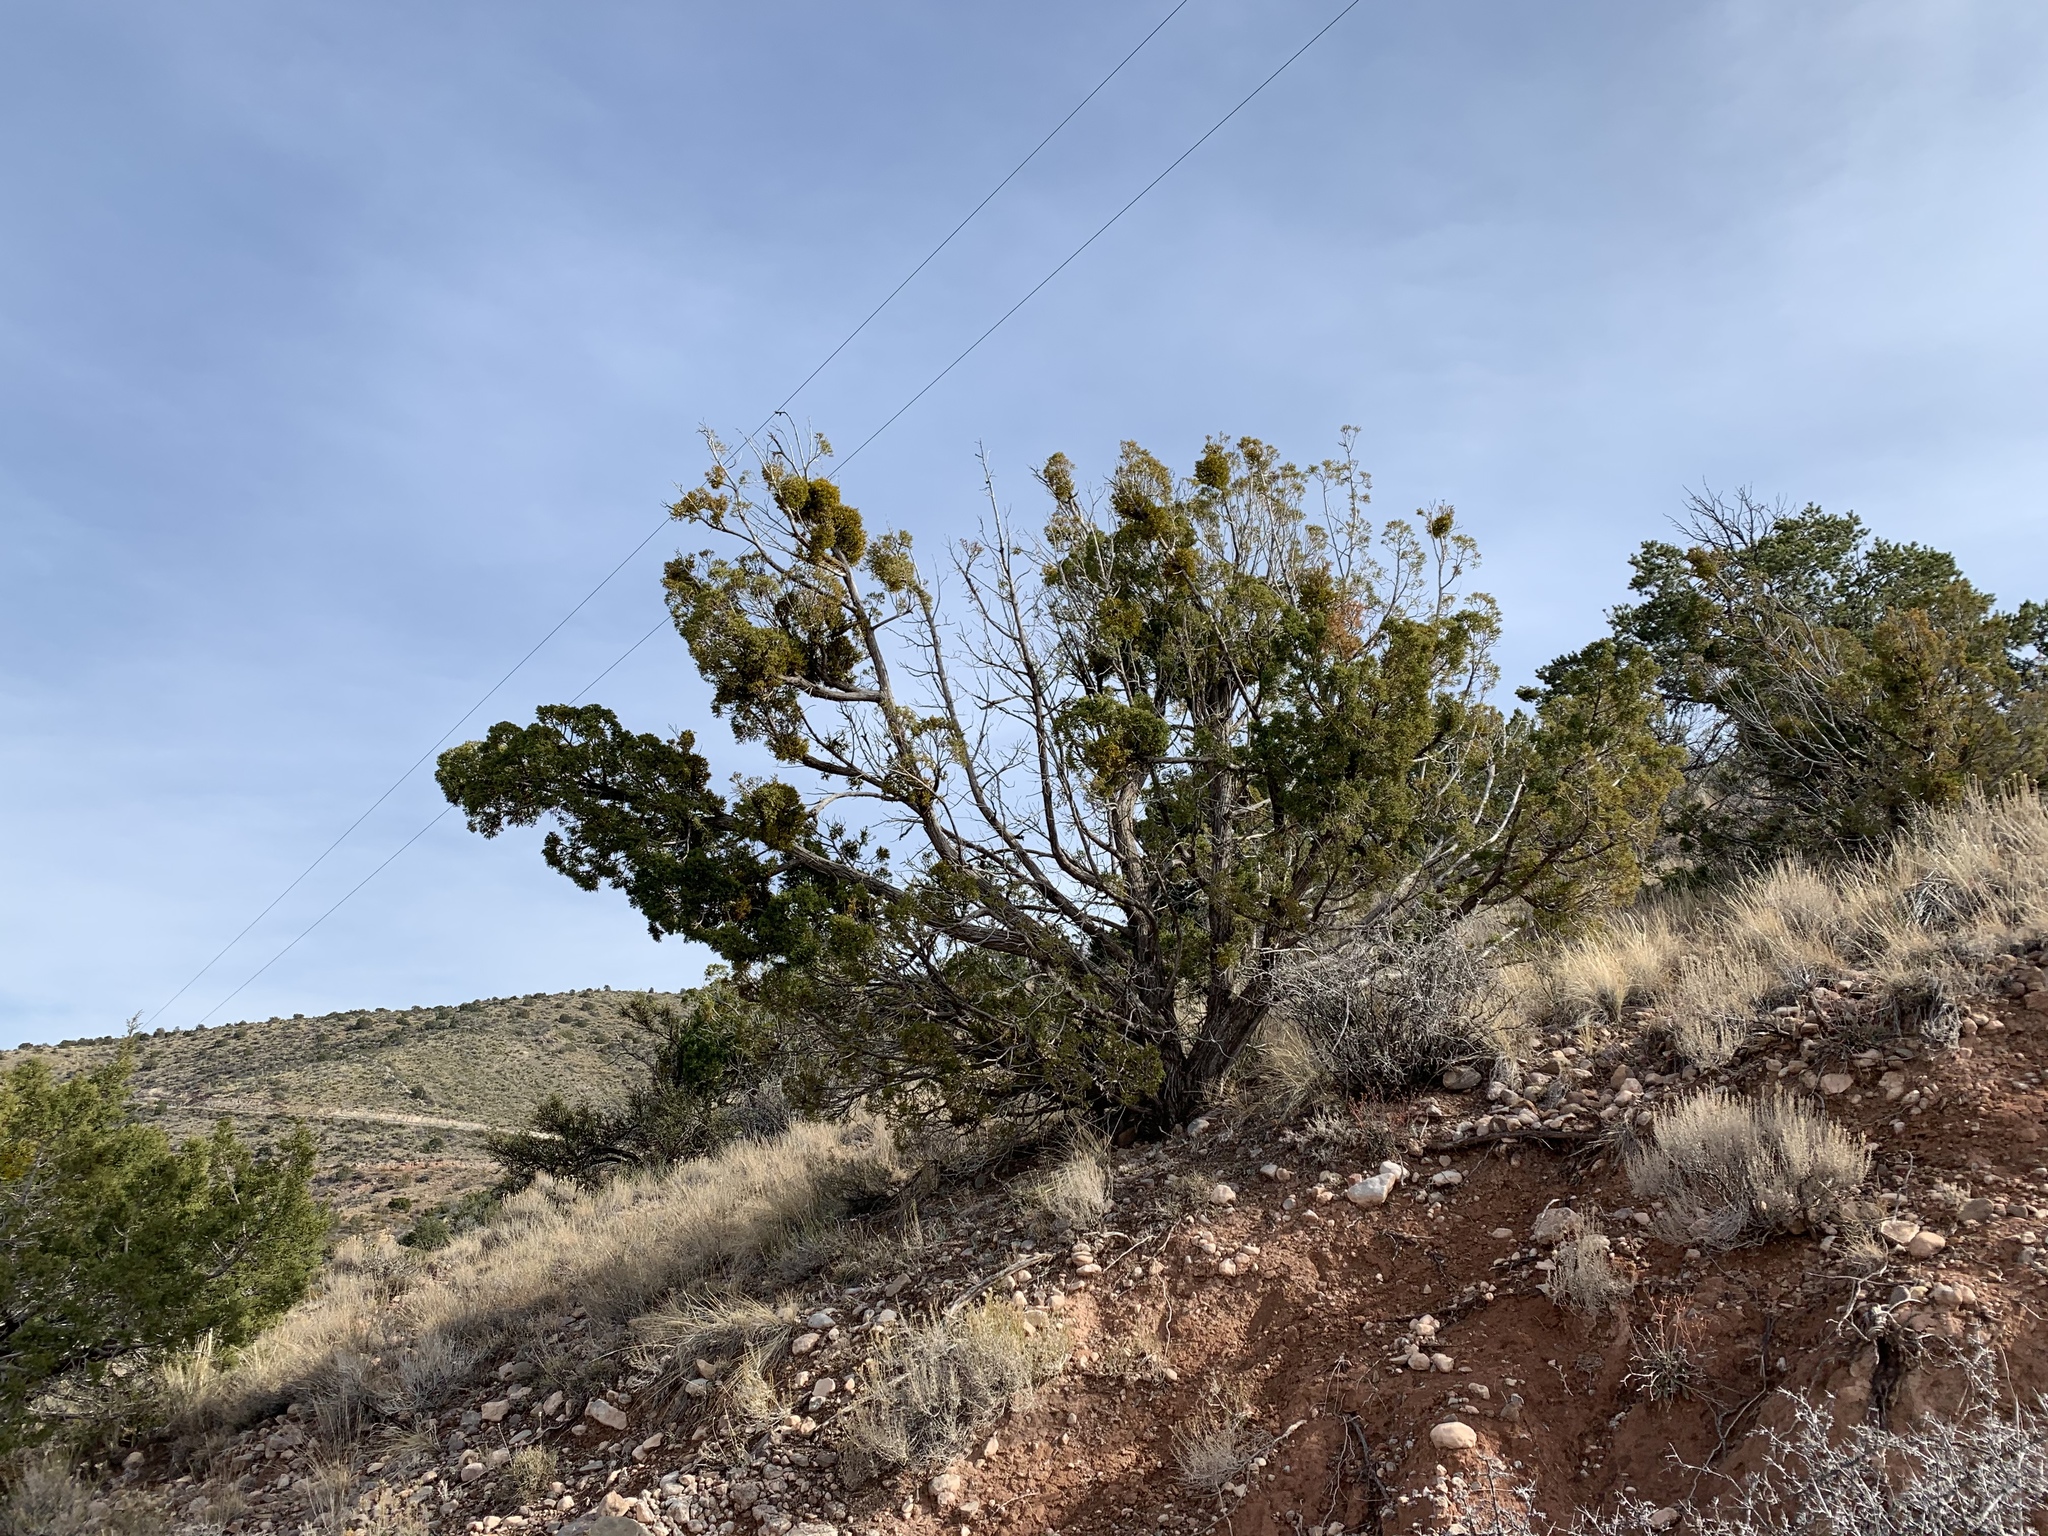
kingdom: Plantae
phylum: Tracheophyta
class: Pinopsida
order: Pinales
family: Cupressaceae
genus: Juniperus
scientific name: Juniperus monosperma
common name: One-seed juniper
